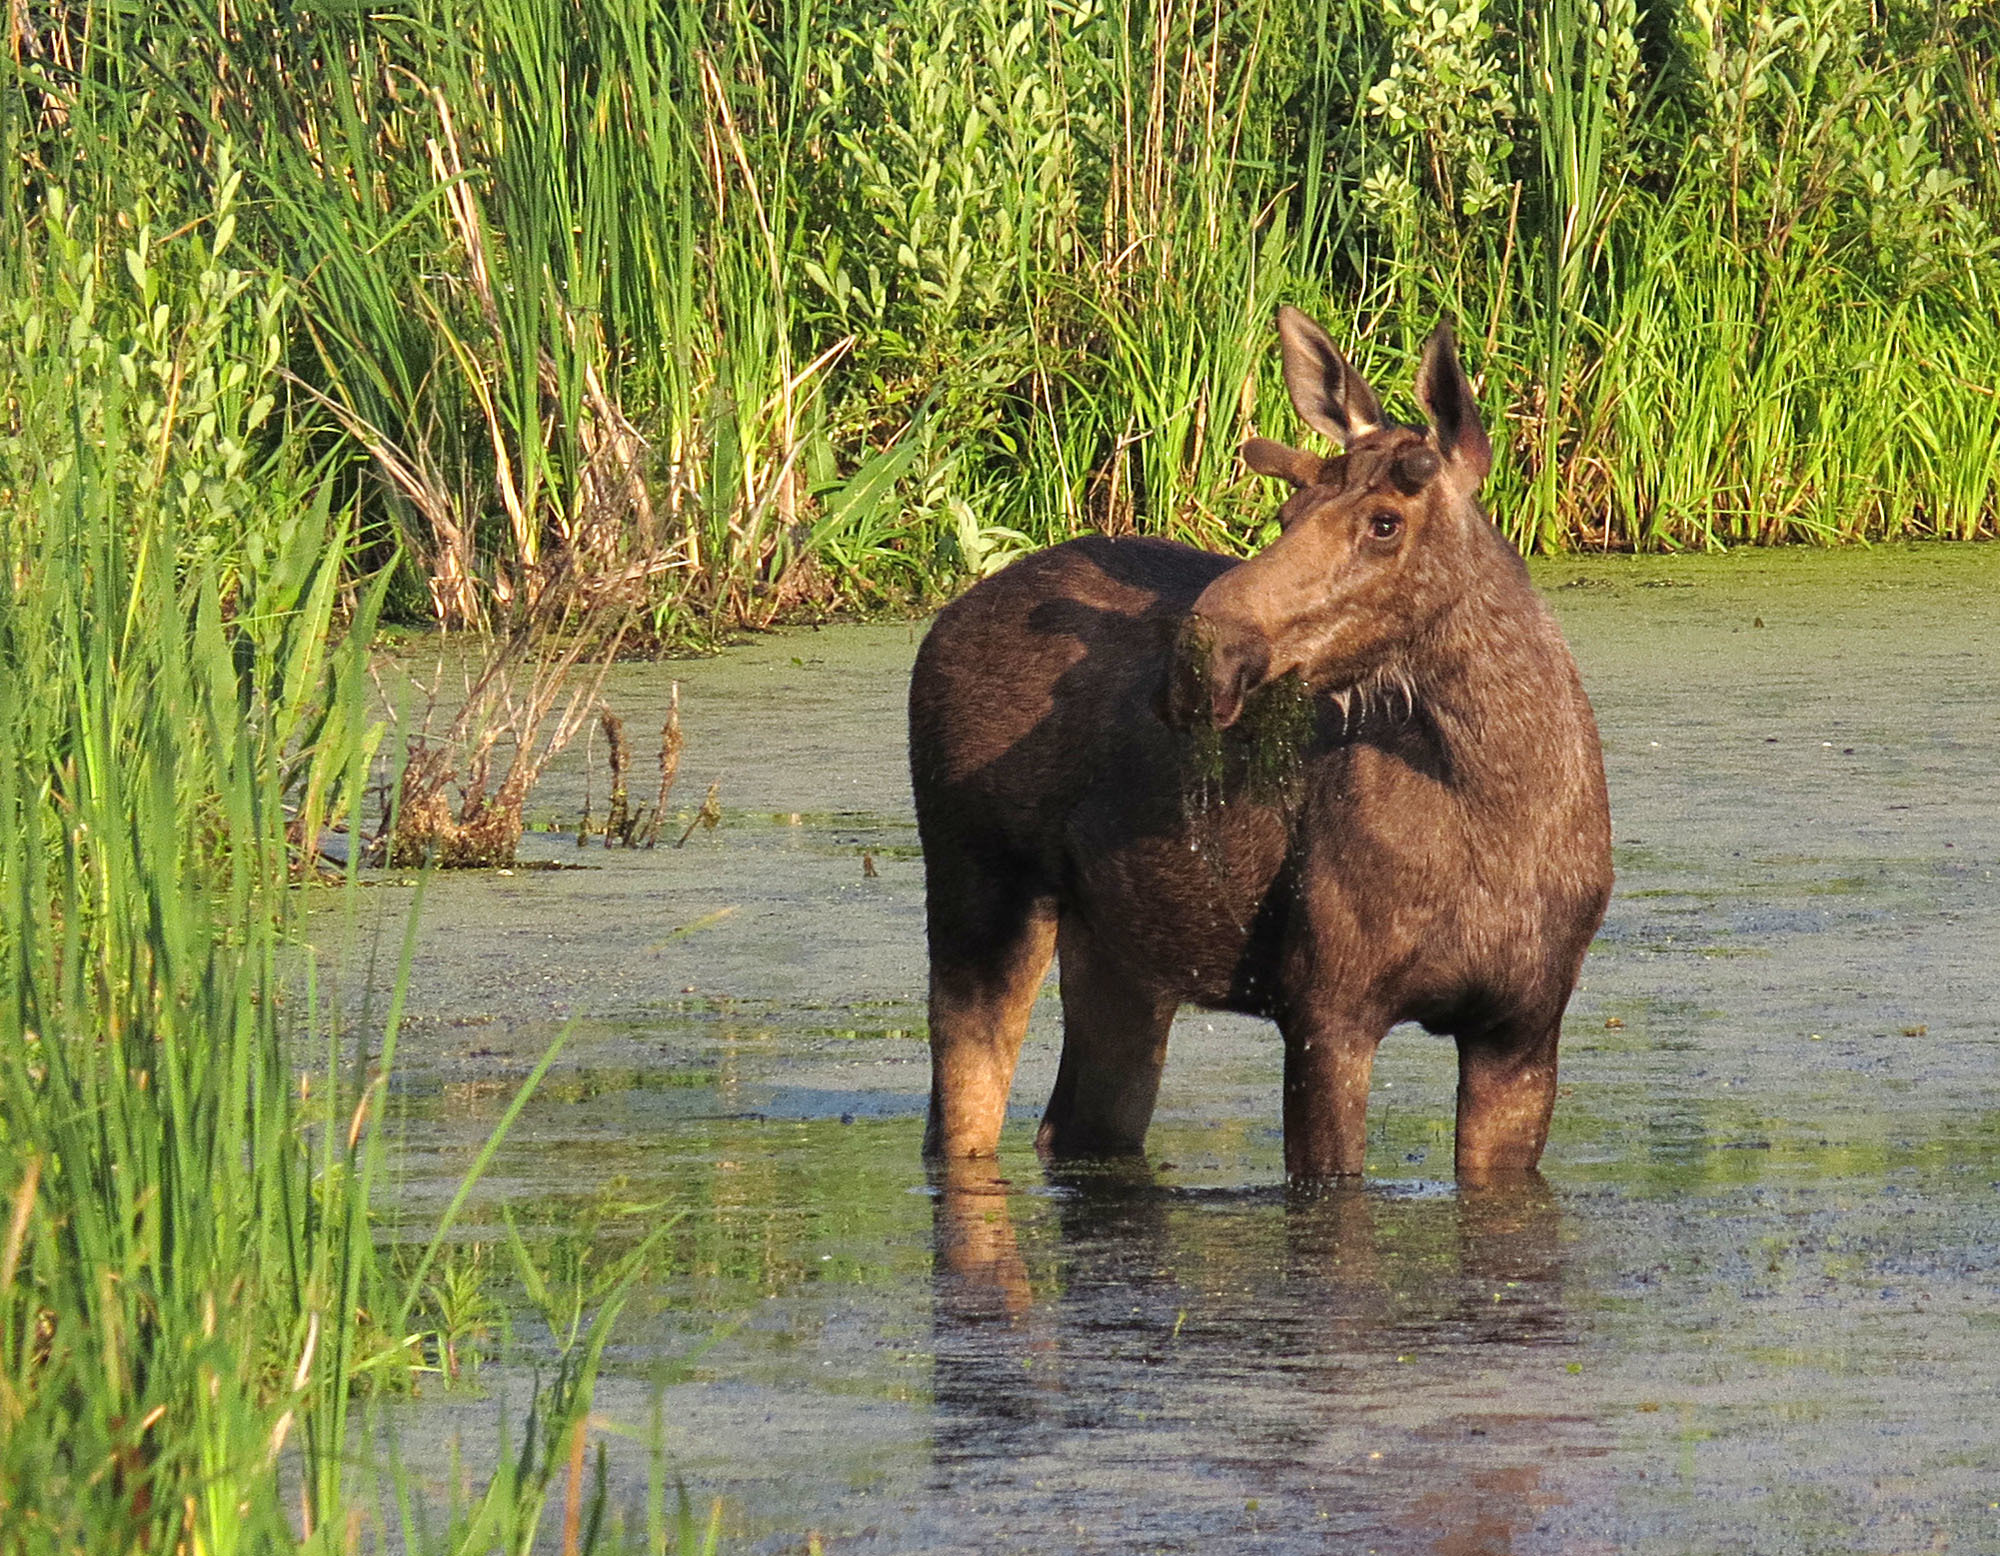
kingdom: Animalia
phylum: Chordata
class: Mammalia
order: Artiodactyla
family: Cervidae
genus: Alces
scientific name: Alces alces
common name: Moose
